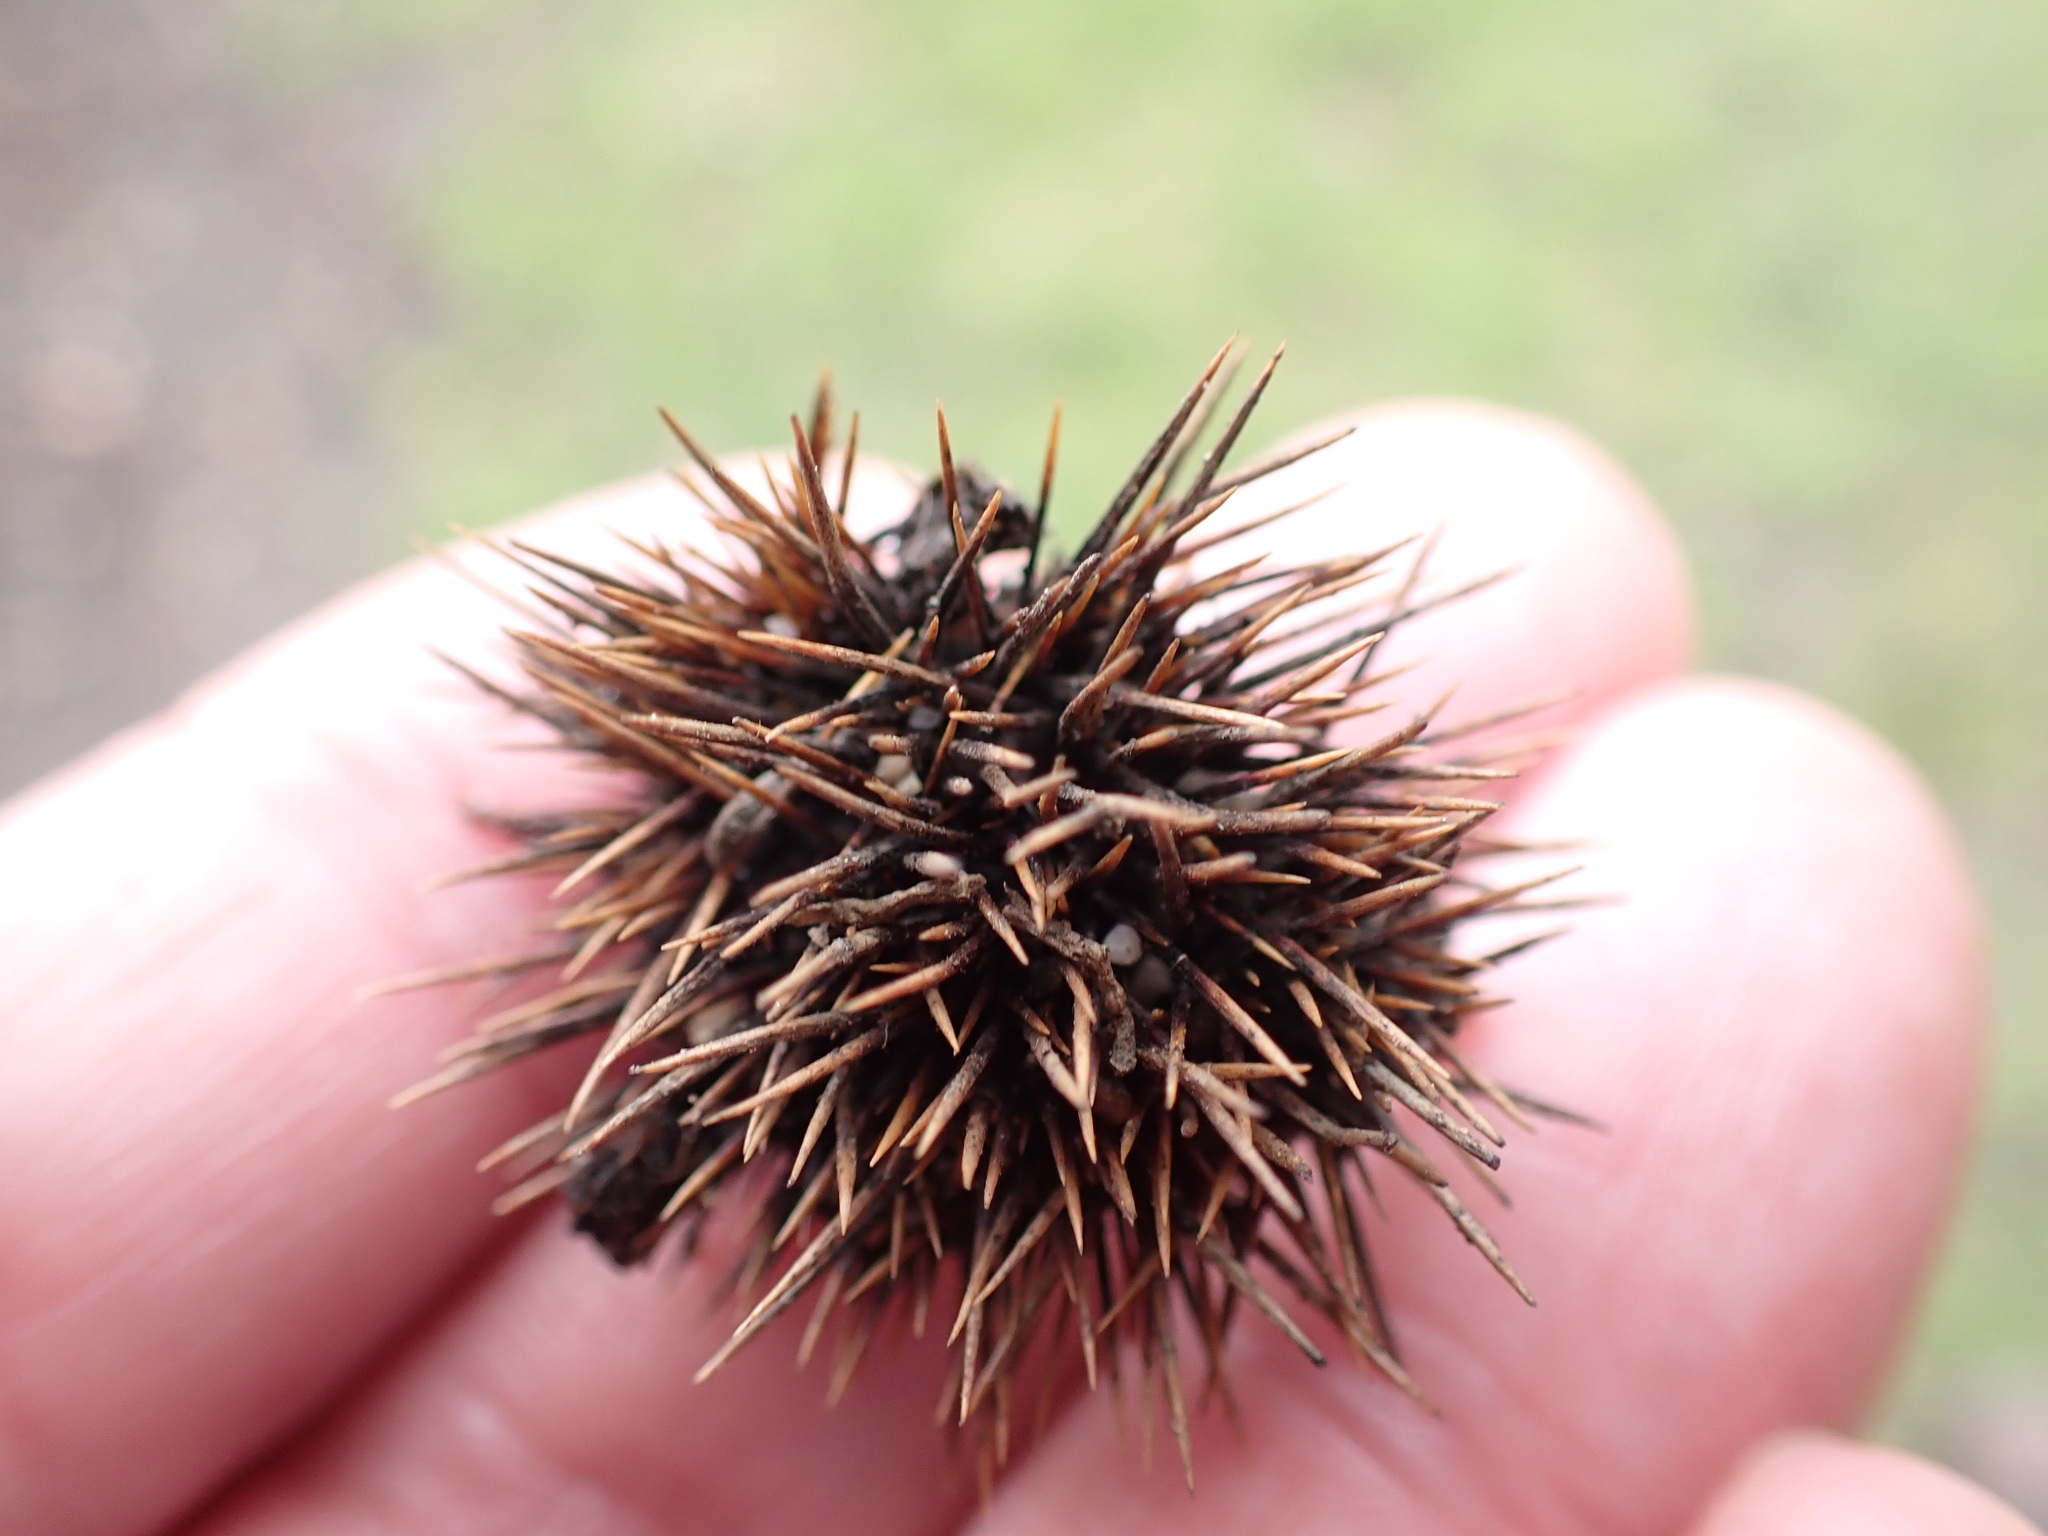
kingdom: Plantae
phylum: Tracheophyta
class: Magnoliopsida
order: Fagales
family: Fagaceae
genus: Castanea
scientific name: Castanea sativa
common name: Sweet chestnut
